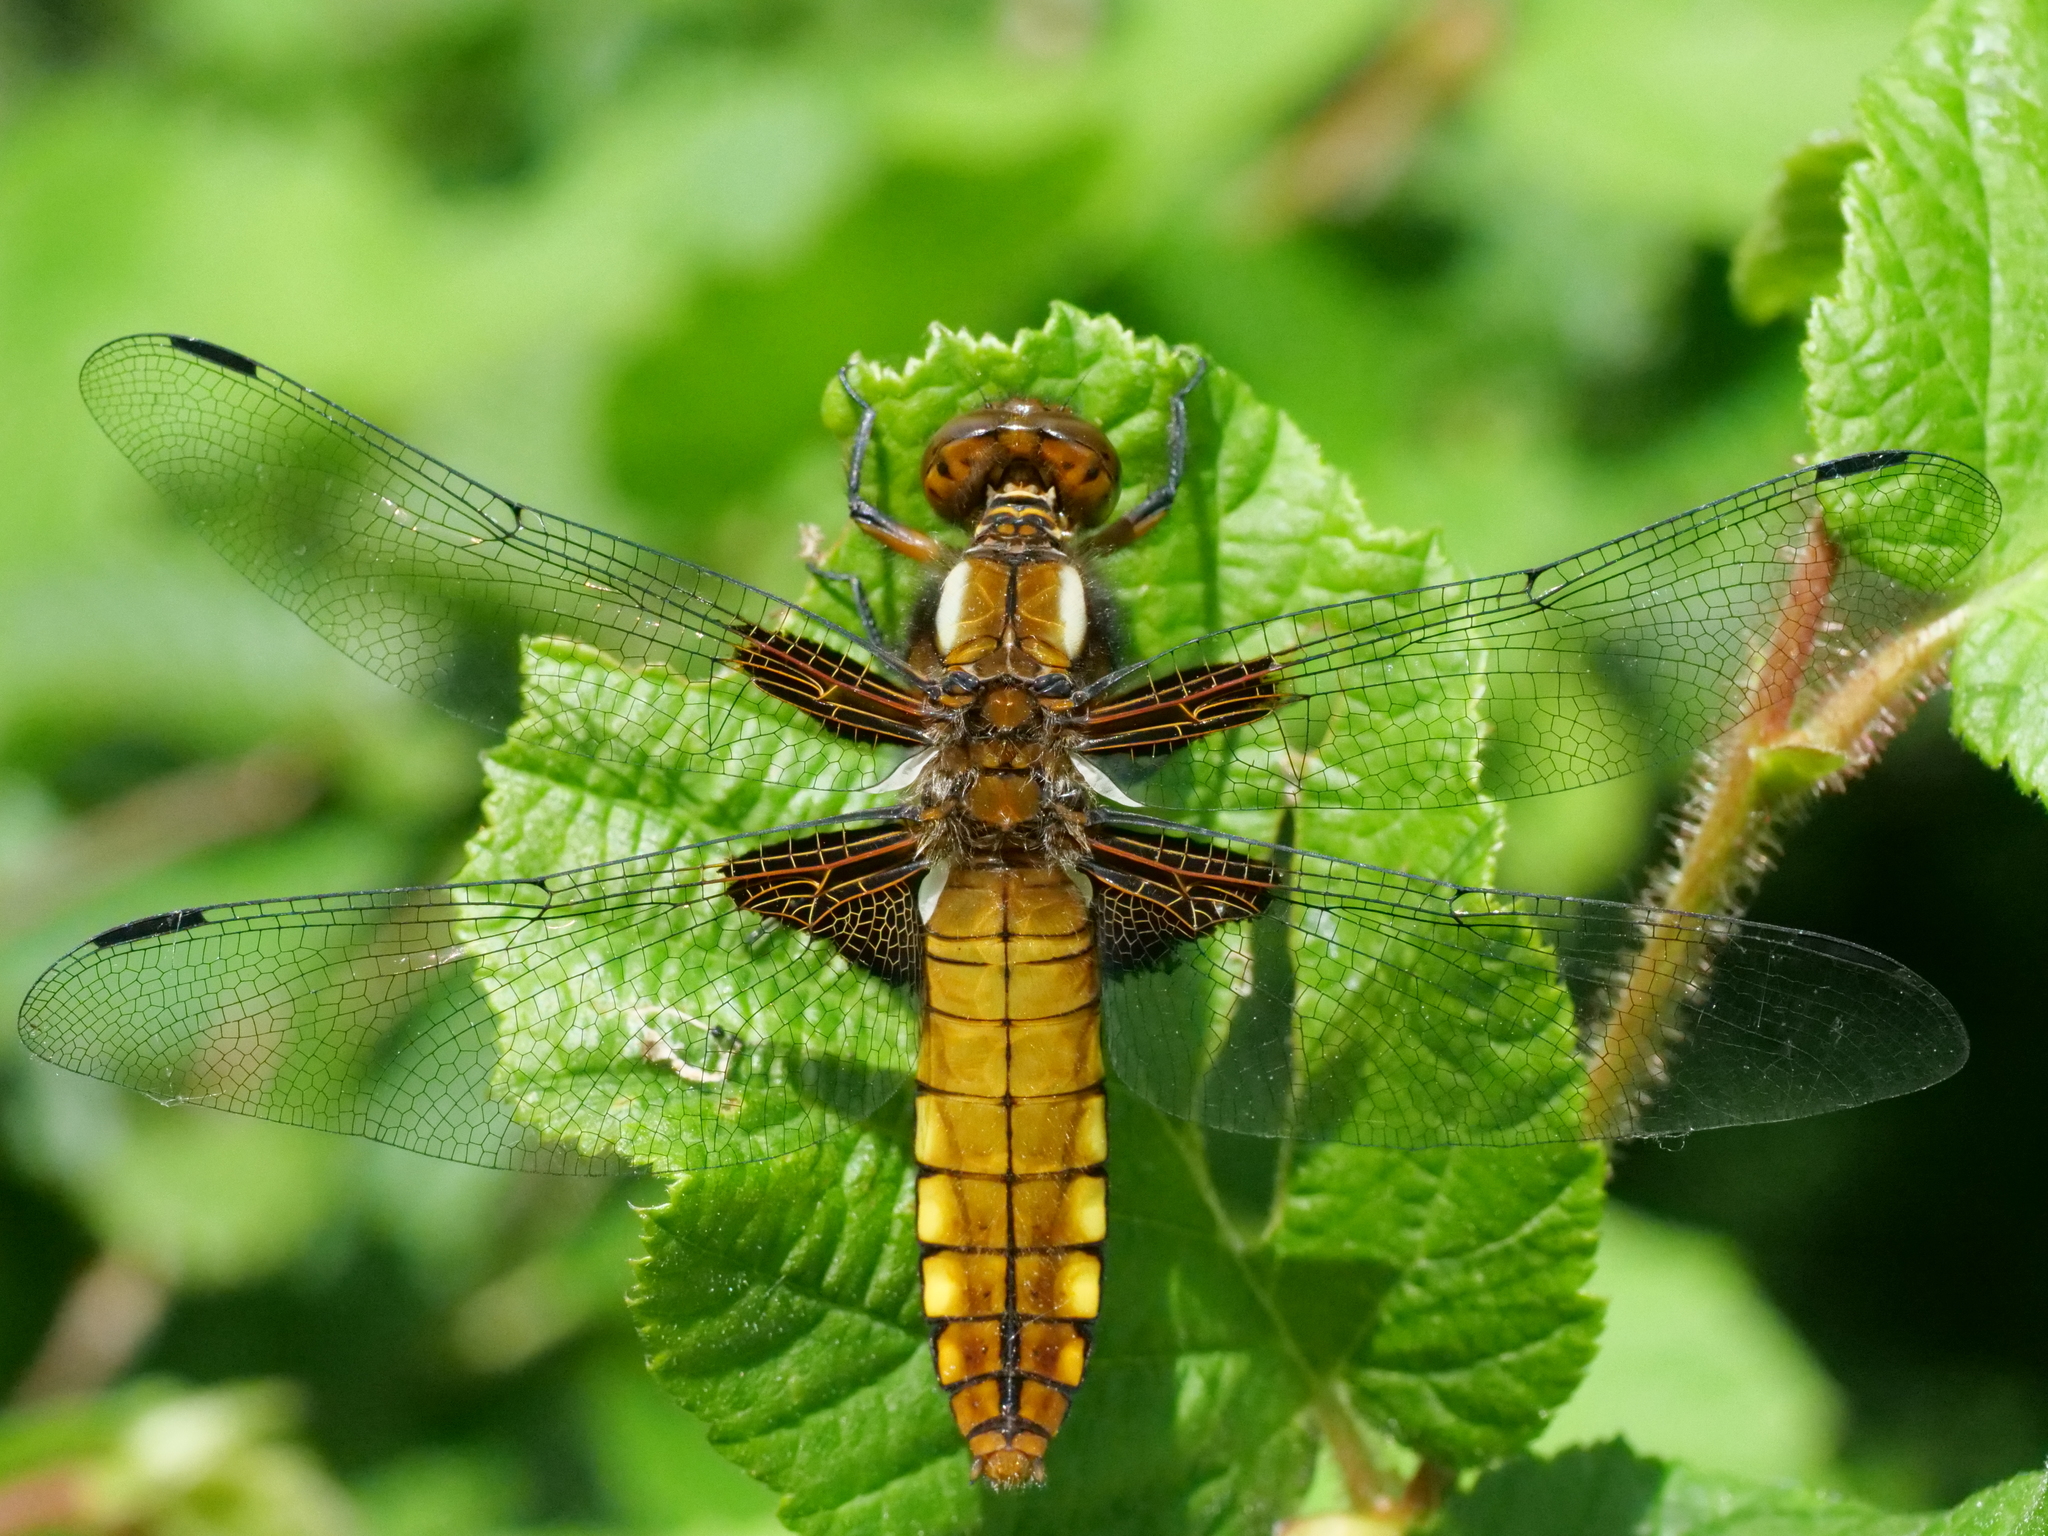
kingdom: Animalia
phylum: Arthropoda
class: Insecta
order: Odonata
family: Libellulidae
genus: Libellula
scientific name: Libellula depressa
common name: Broad-bodied chaser
